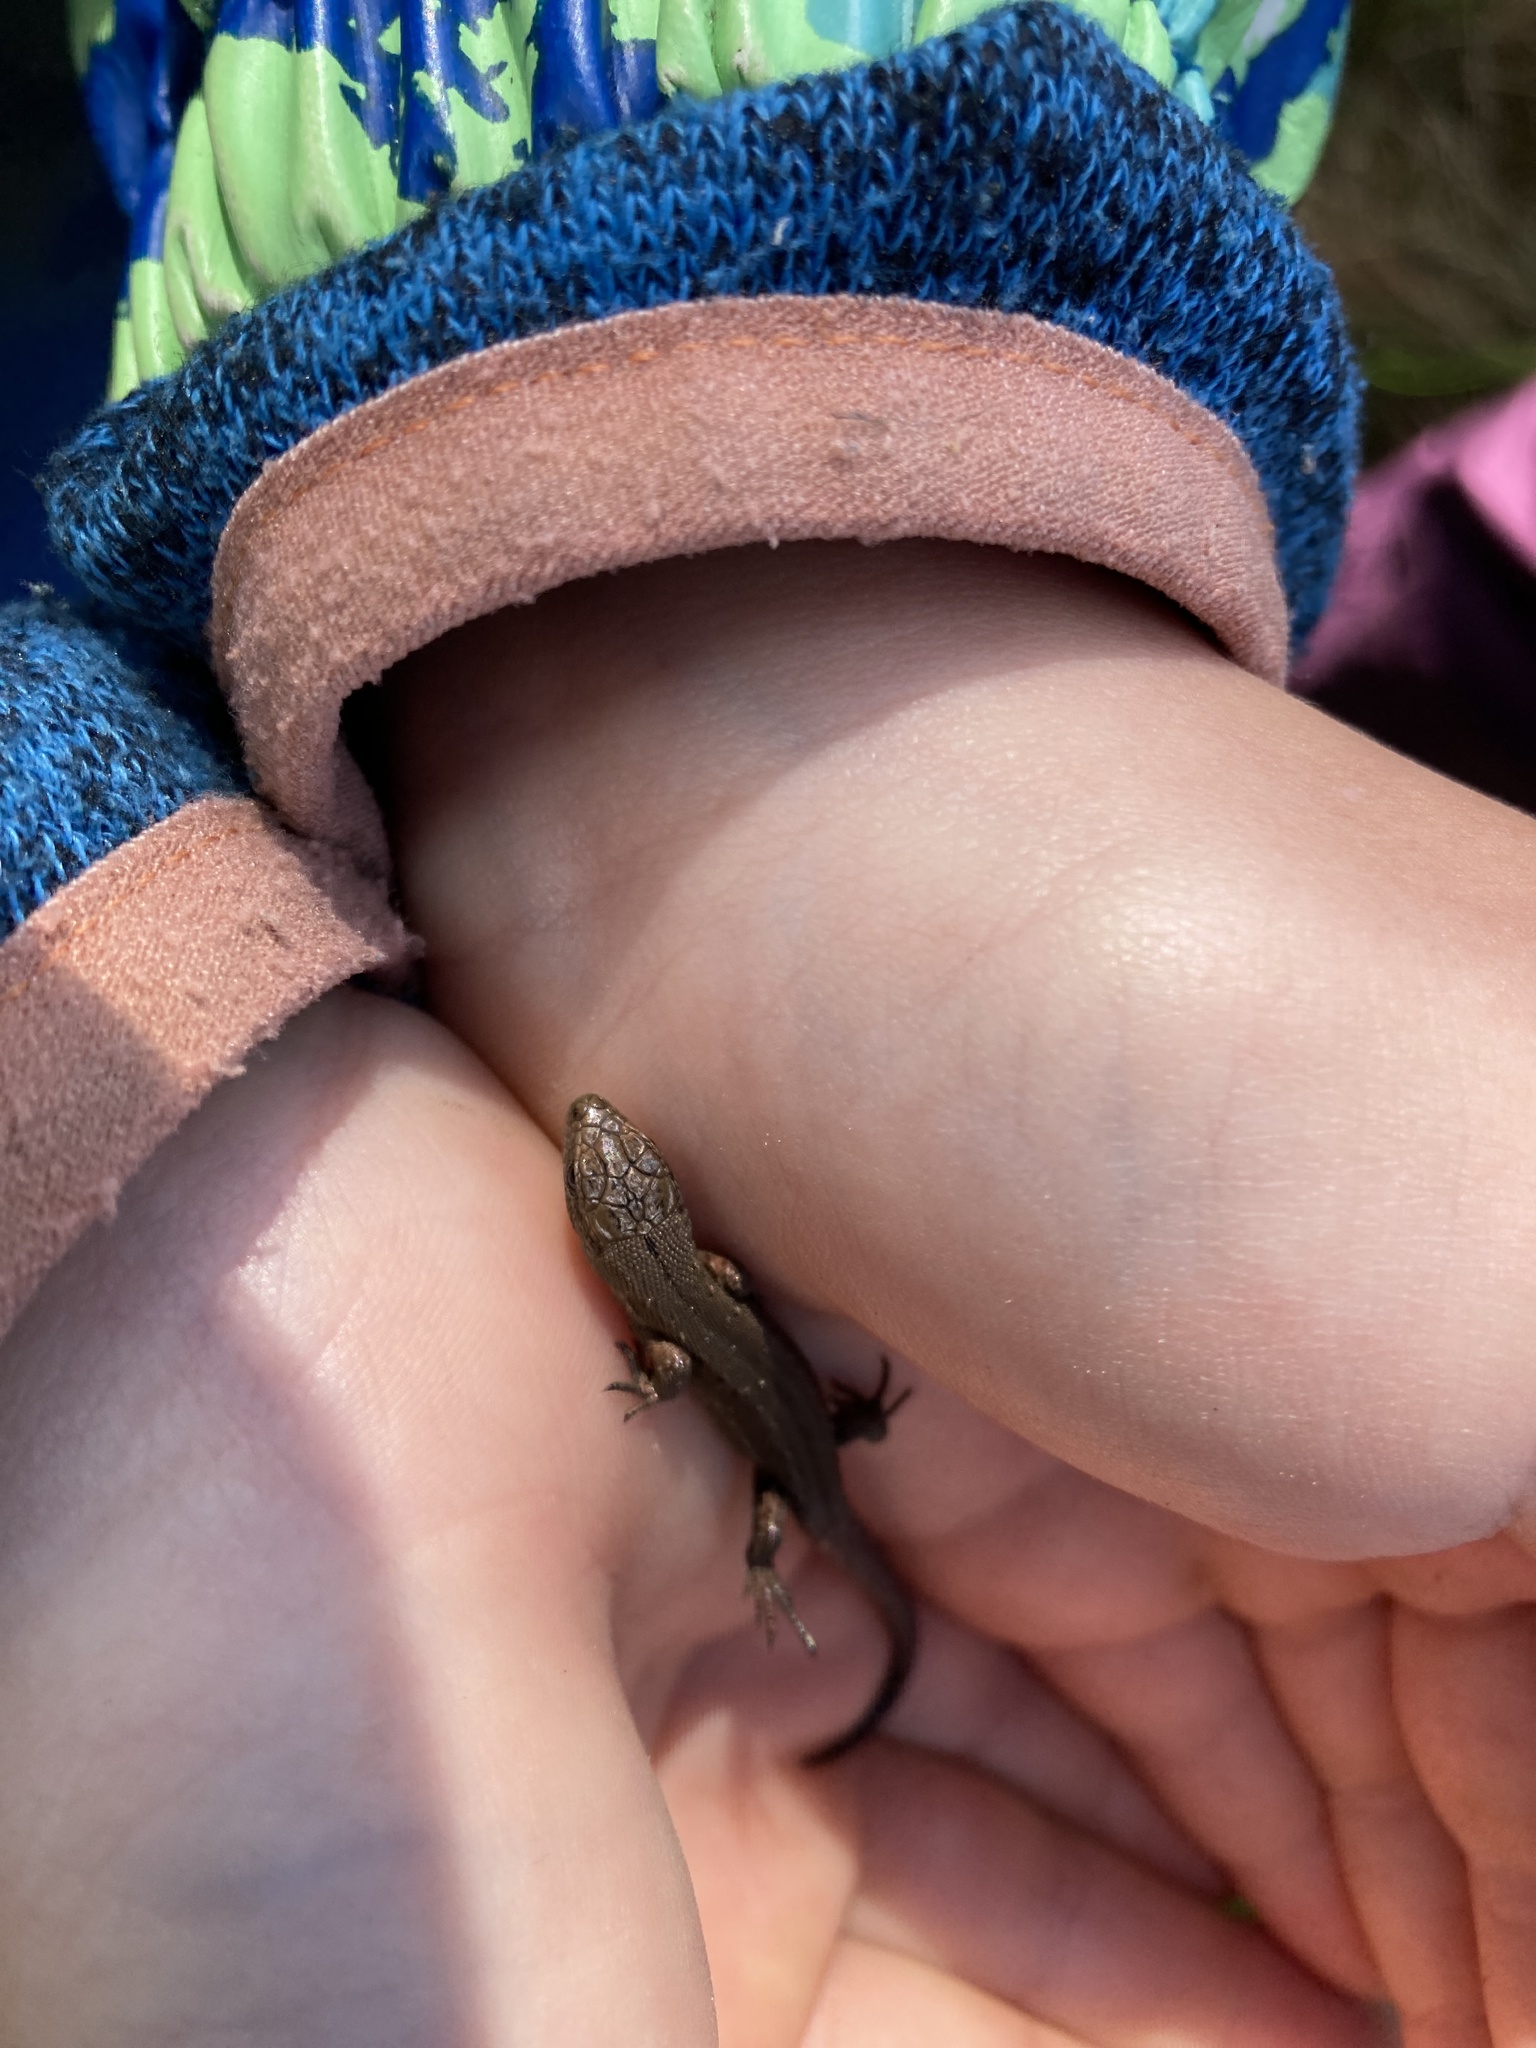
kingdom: Animalia
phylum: Chordata
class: Squamata
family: Lacertidae
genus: Zootoca
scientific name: Zootoca vivipara
